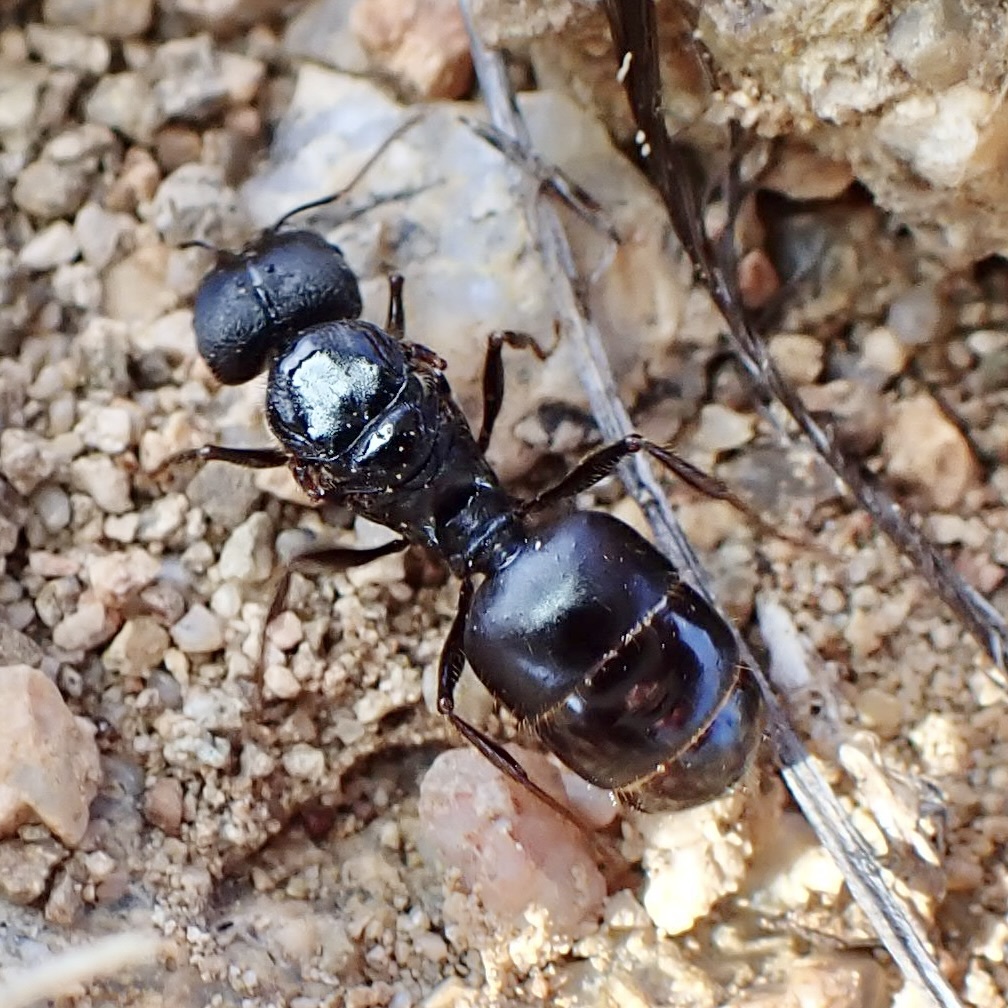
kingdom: Animalia
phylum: Arthropoda
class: Insecta
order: Hymenoptera
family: Formicidae
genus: Pheidole
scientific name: Pheidole rhea
